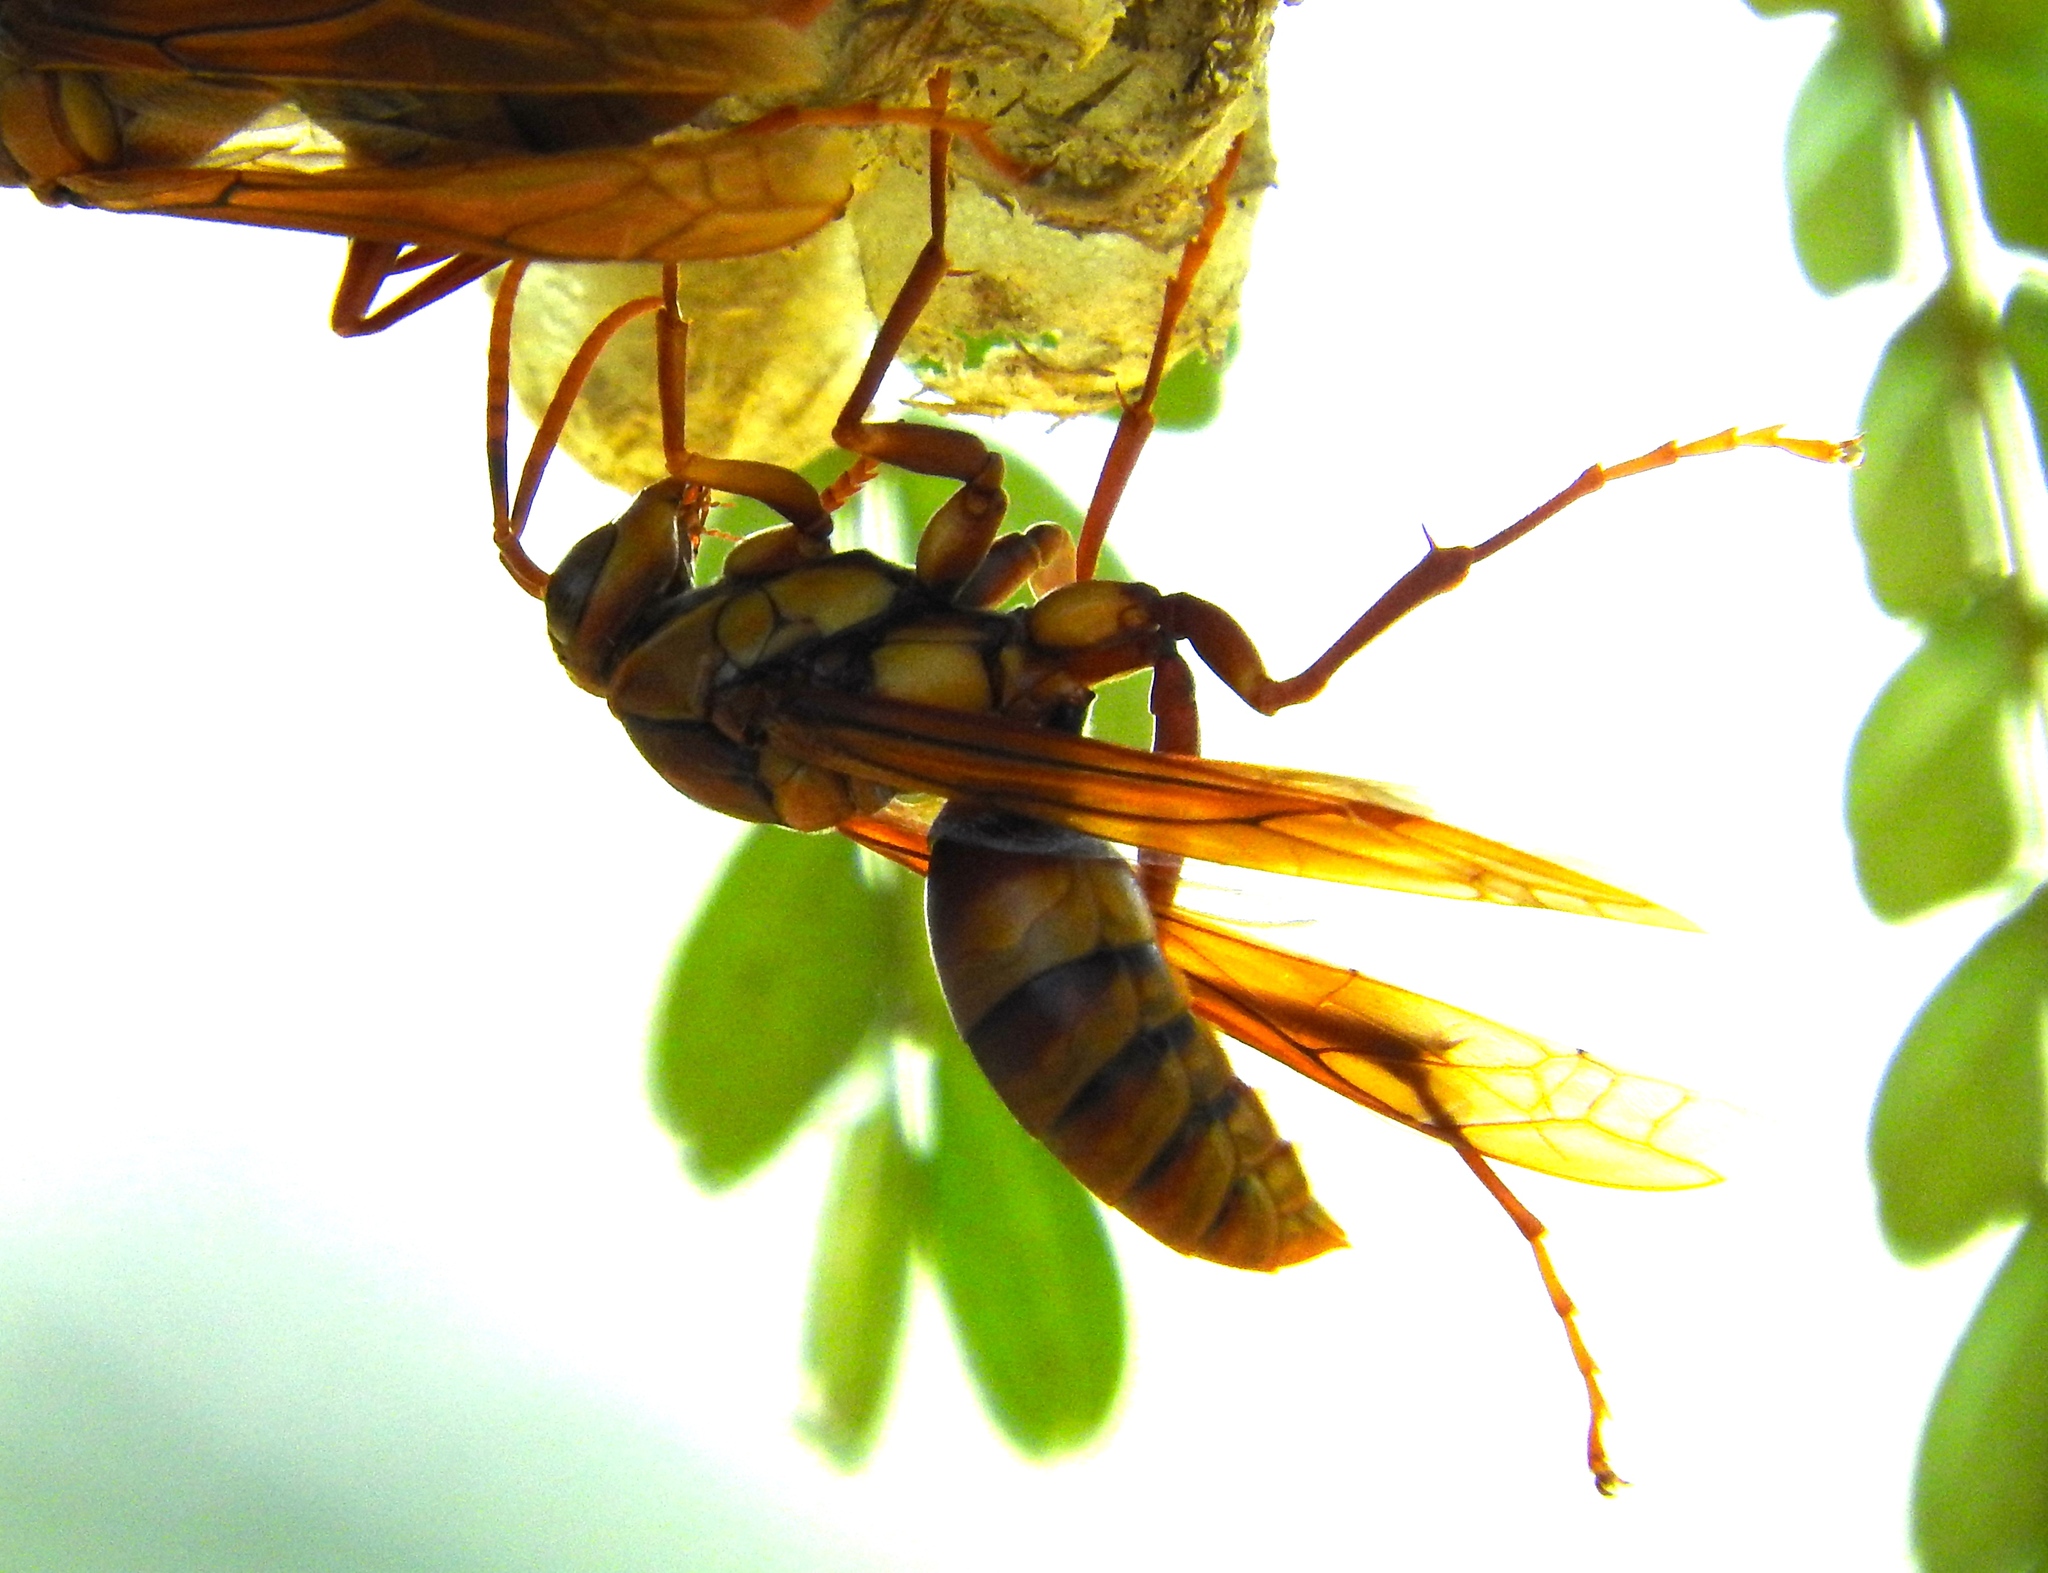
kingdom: Animalia
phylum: Arthropoda
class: Insecta
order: Hymenoptera
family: Eumenidae
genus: Polistes
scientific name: Polistes carnifex
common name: Paper wasp
